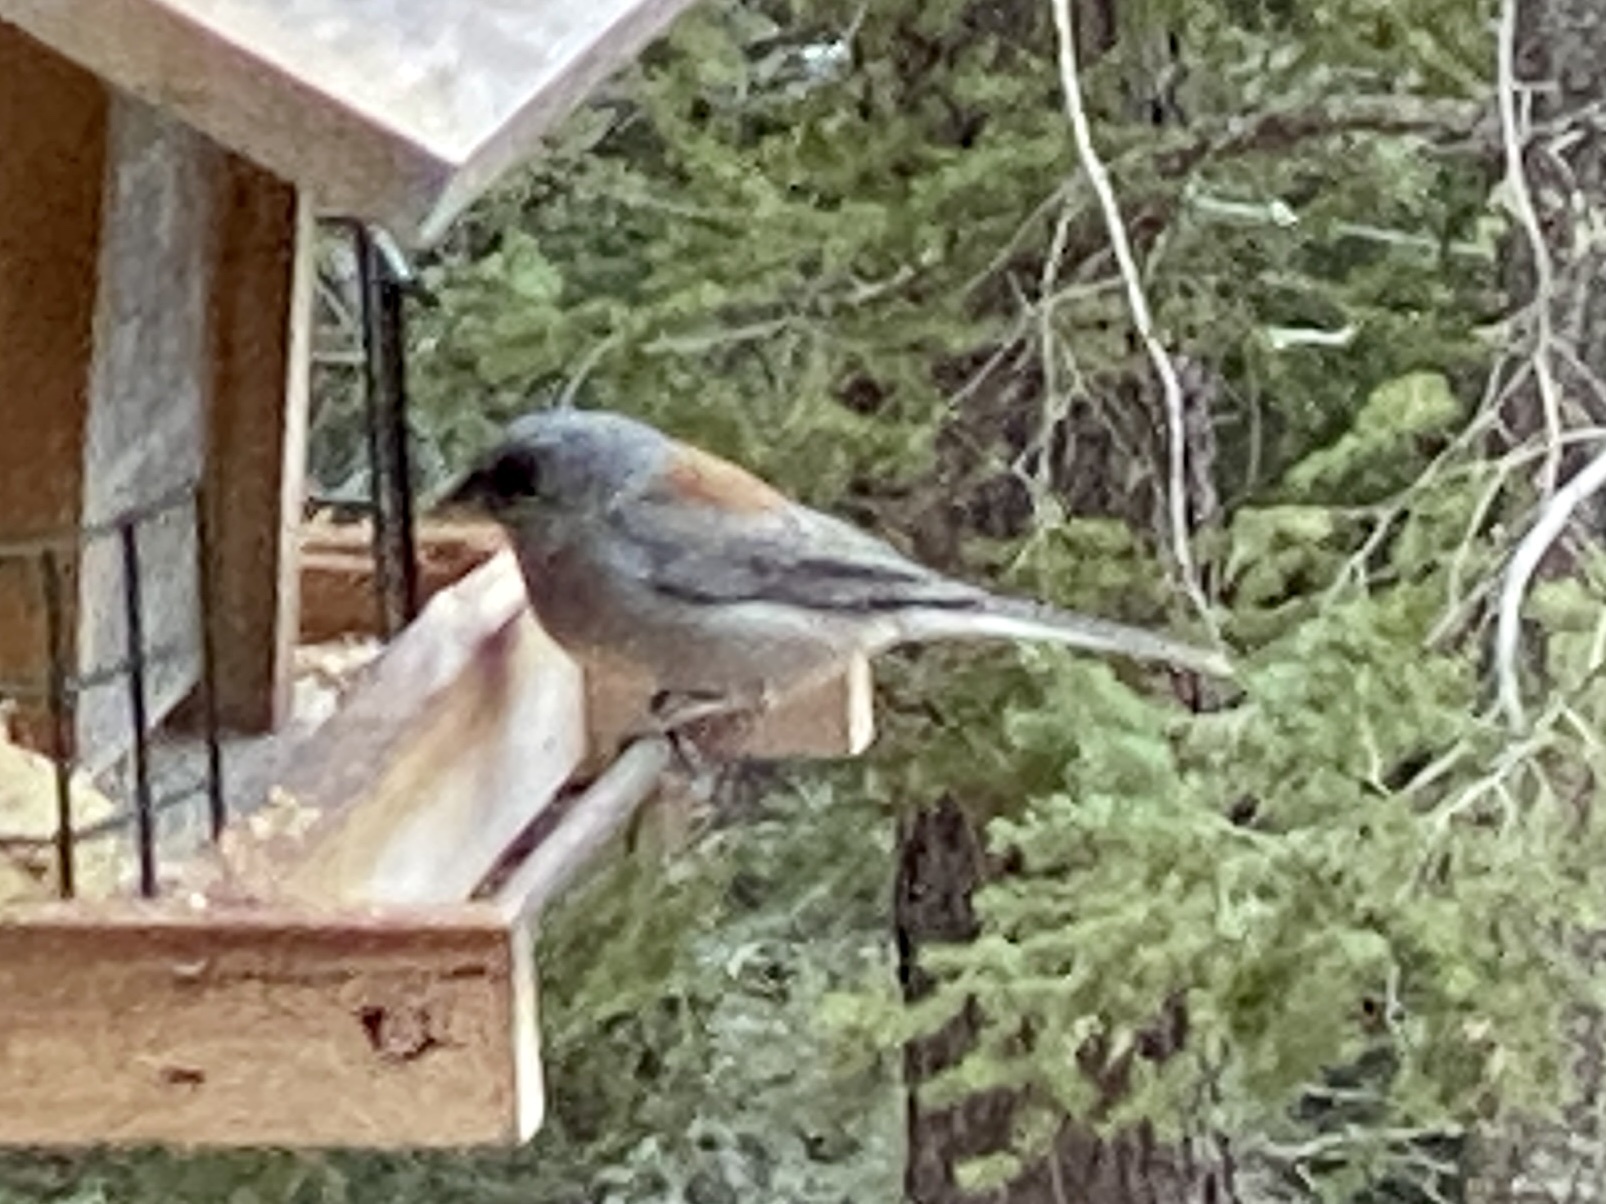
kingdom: Animalia
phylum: Chordata
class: Aves
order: Passeriformes
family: Passerellidae
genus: Junco
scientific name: Junco hyemalis
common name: Dark-eyed junco
